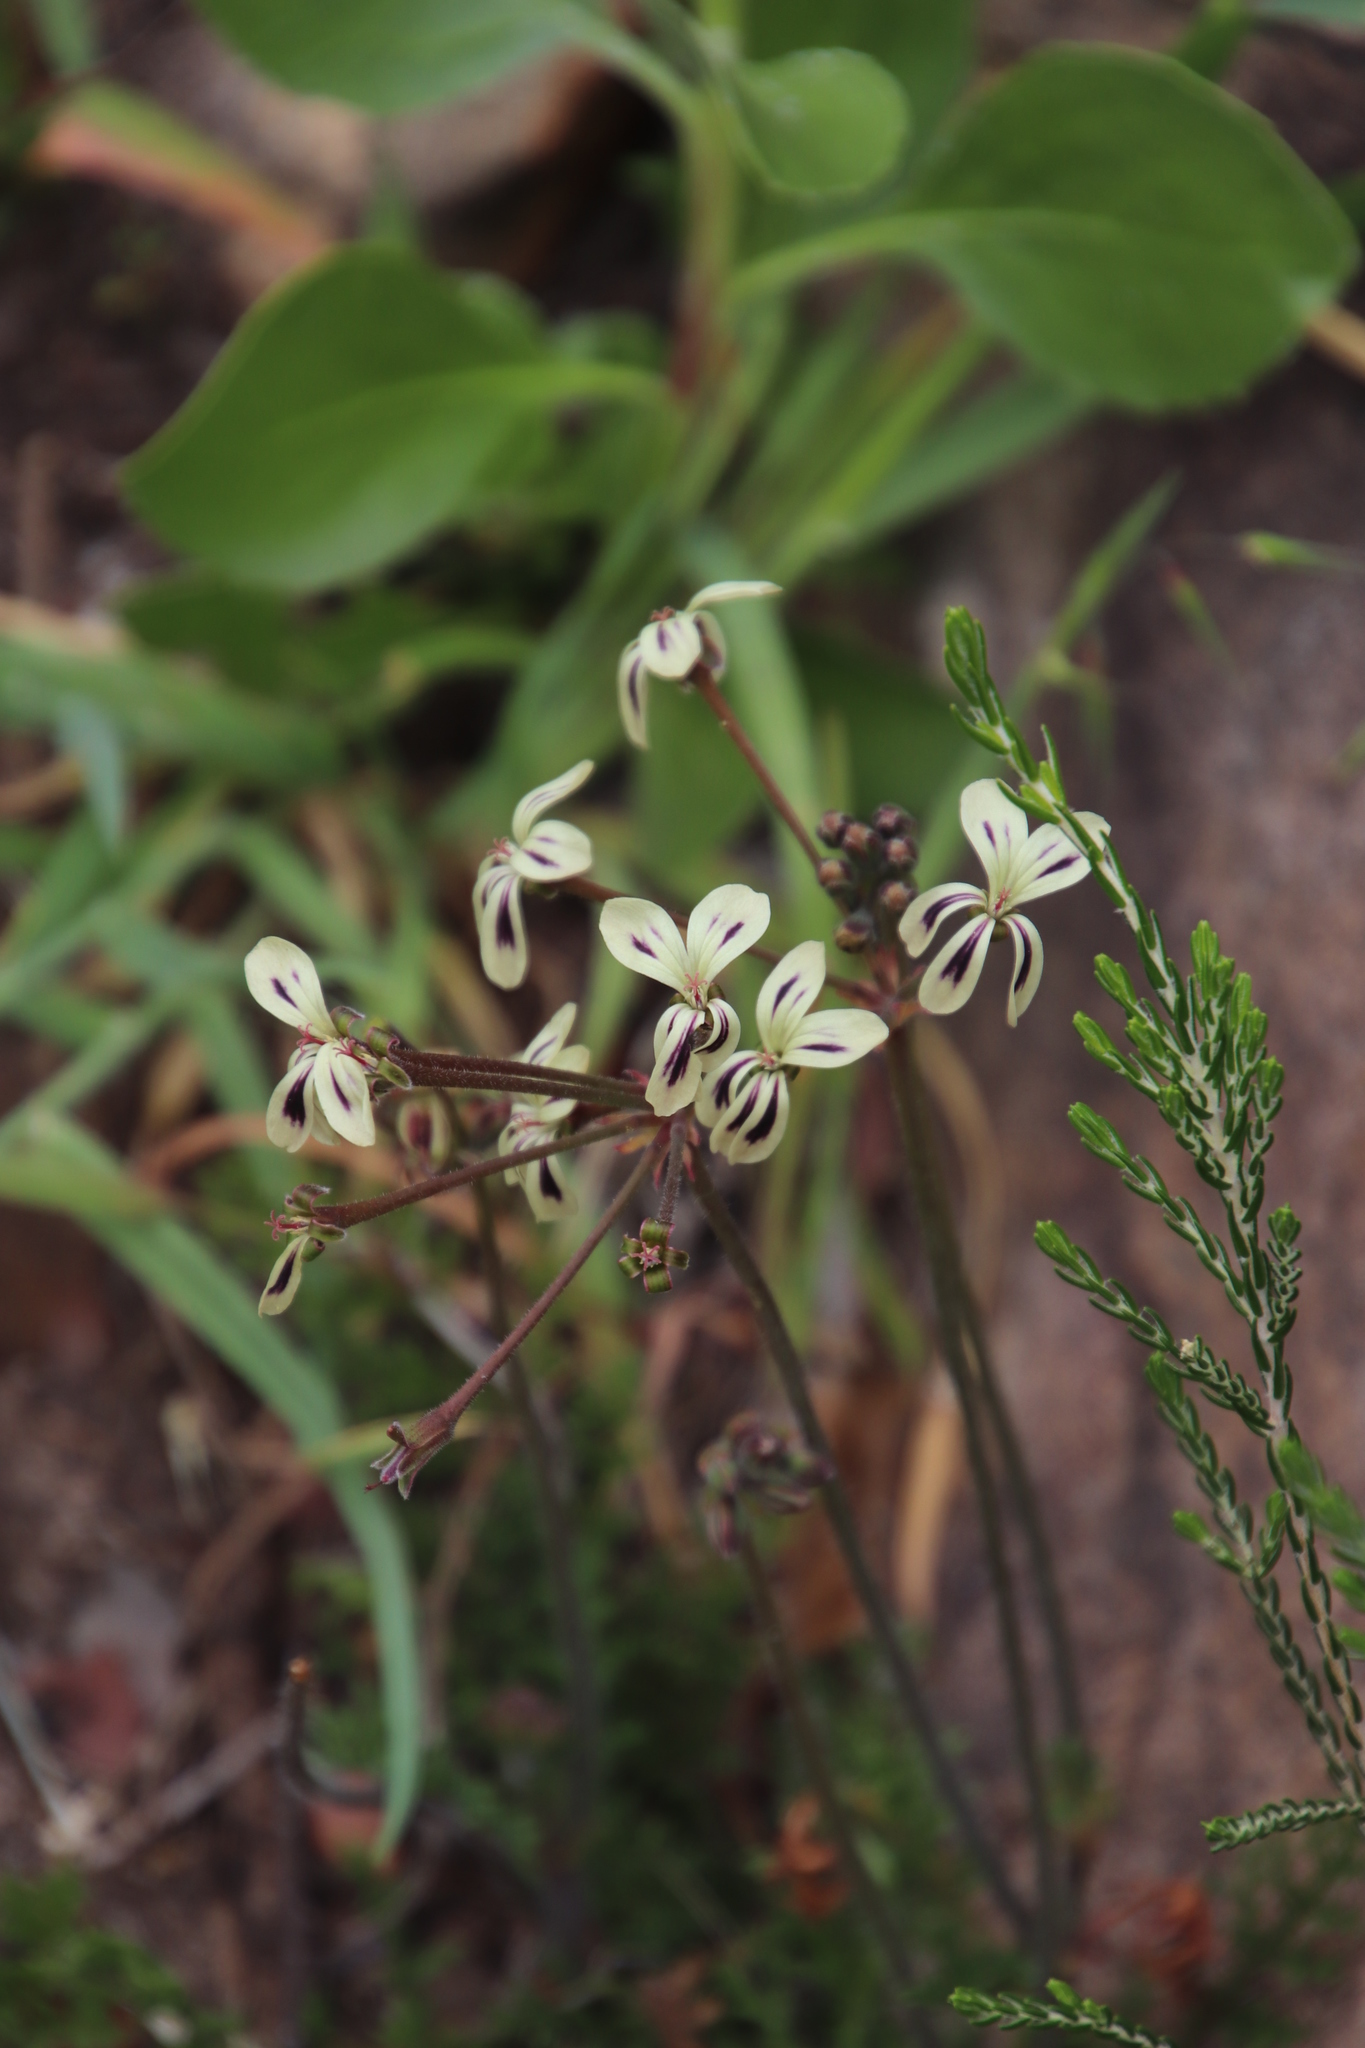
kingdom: Plantae
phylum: Tracheophyta
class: Magnoliopsida
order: Geraniales
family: Geraniaceae
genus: Pelargonium
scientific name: Pelargonium triste
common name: Night-scent pelargonium
